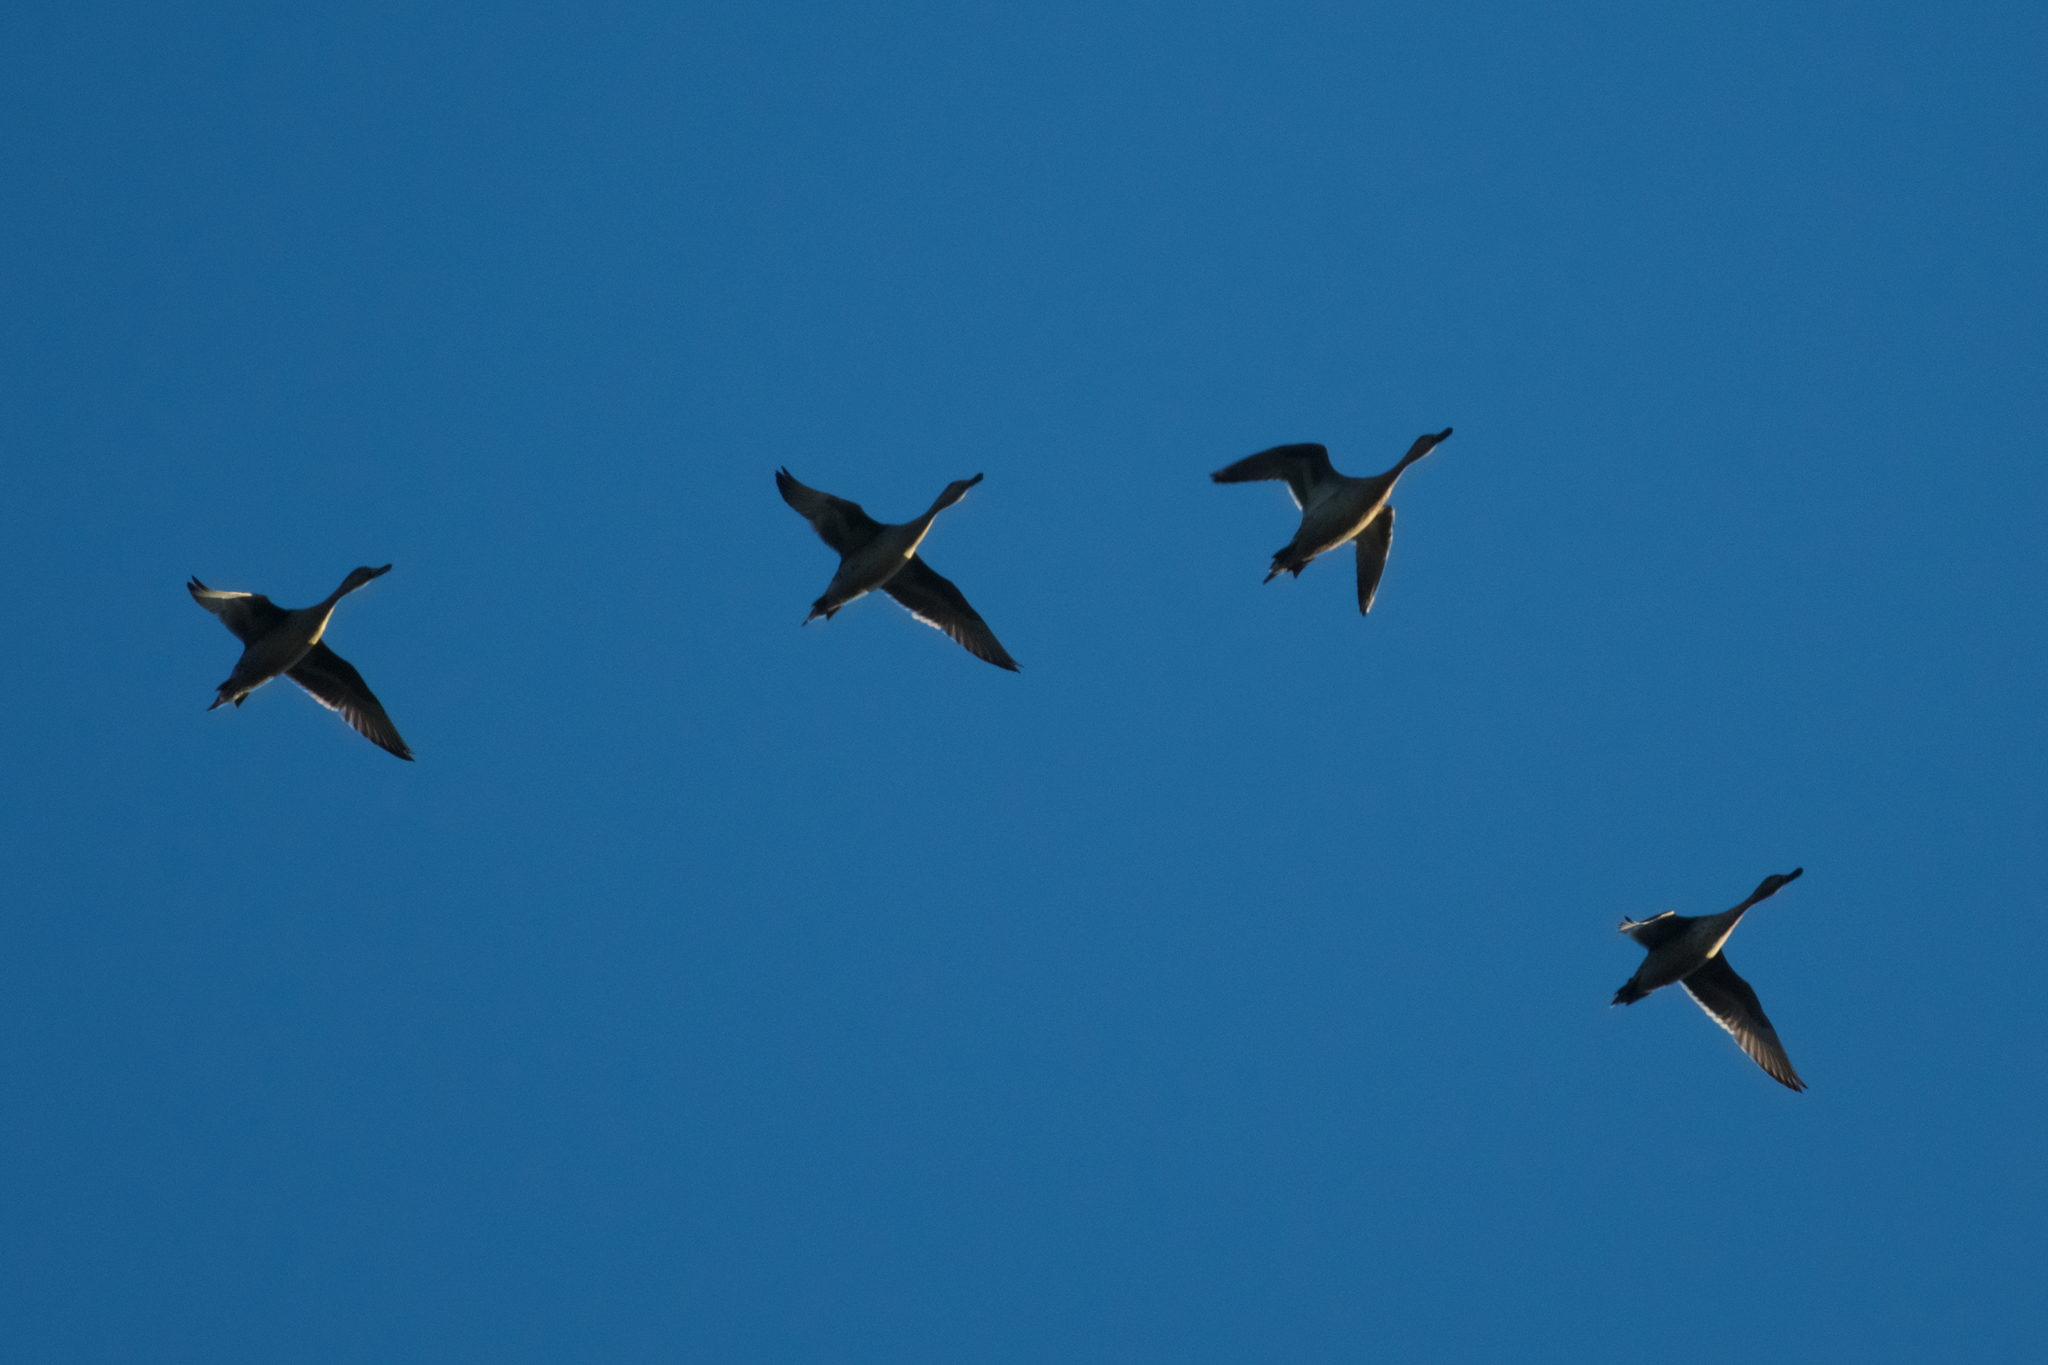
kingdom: Animalia
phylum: Chordata
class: Aves
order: Anseriformes
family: Anatidae
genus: Anas
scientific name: Anas acuta
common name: Northern pintail
